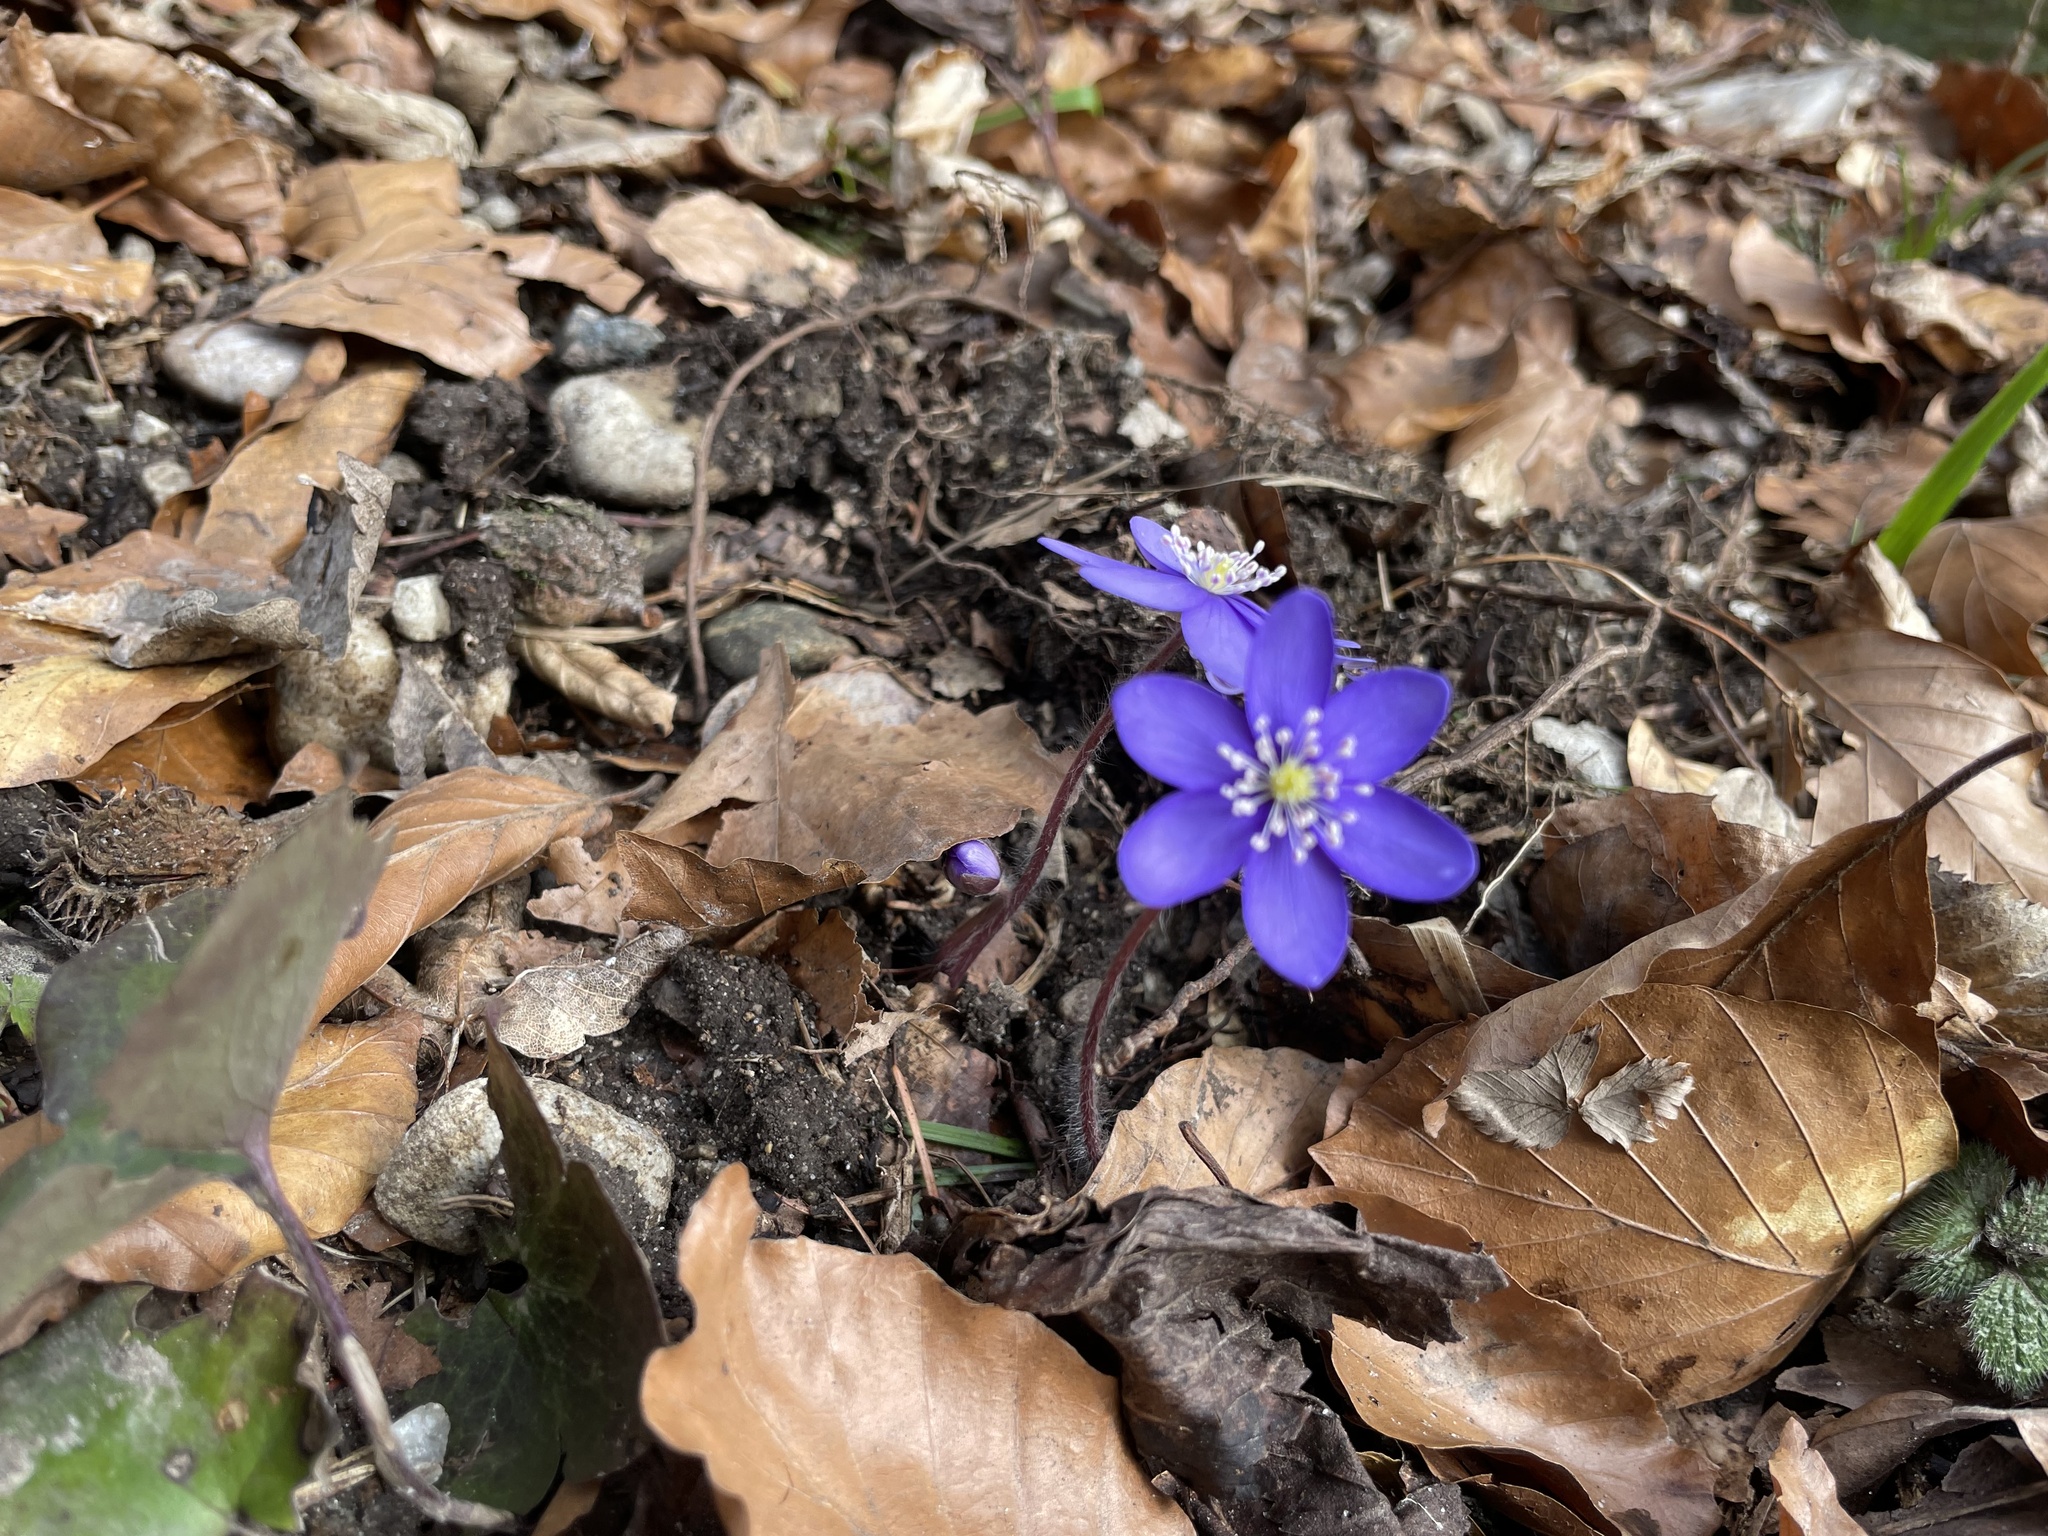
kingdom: Plantae
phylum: Tracheophyta
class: Magnoliopsida
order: Ranunculales
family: Ranunculaceae
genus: Hepatica
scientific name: Hepatica nobilis
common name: Liverleaf
